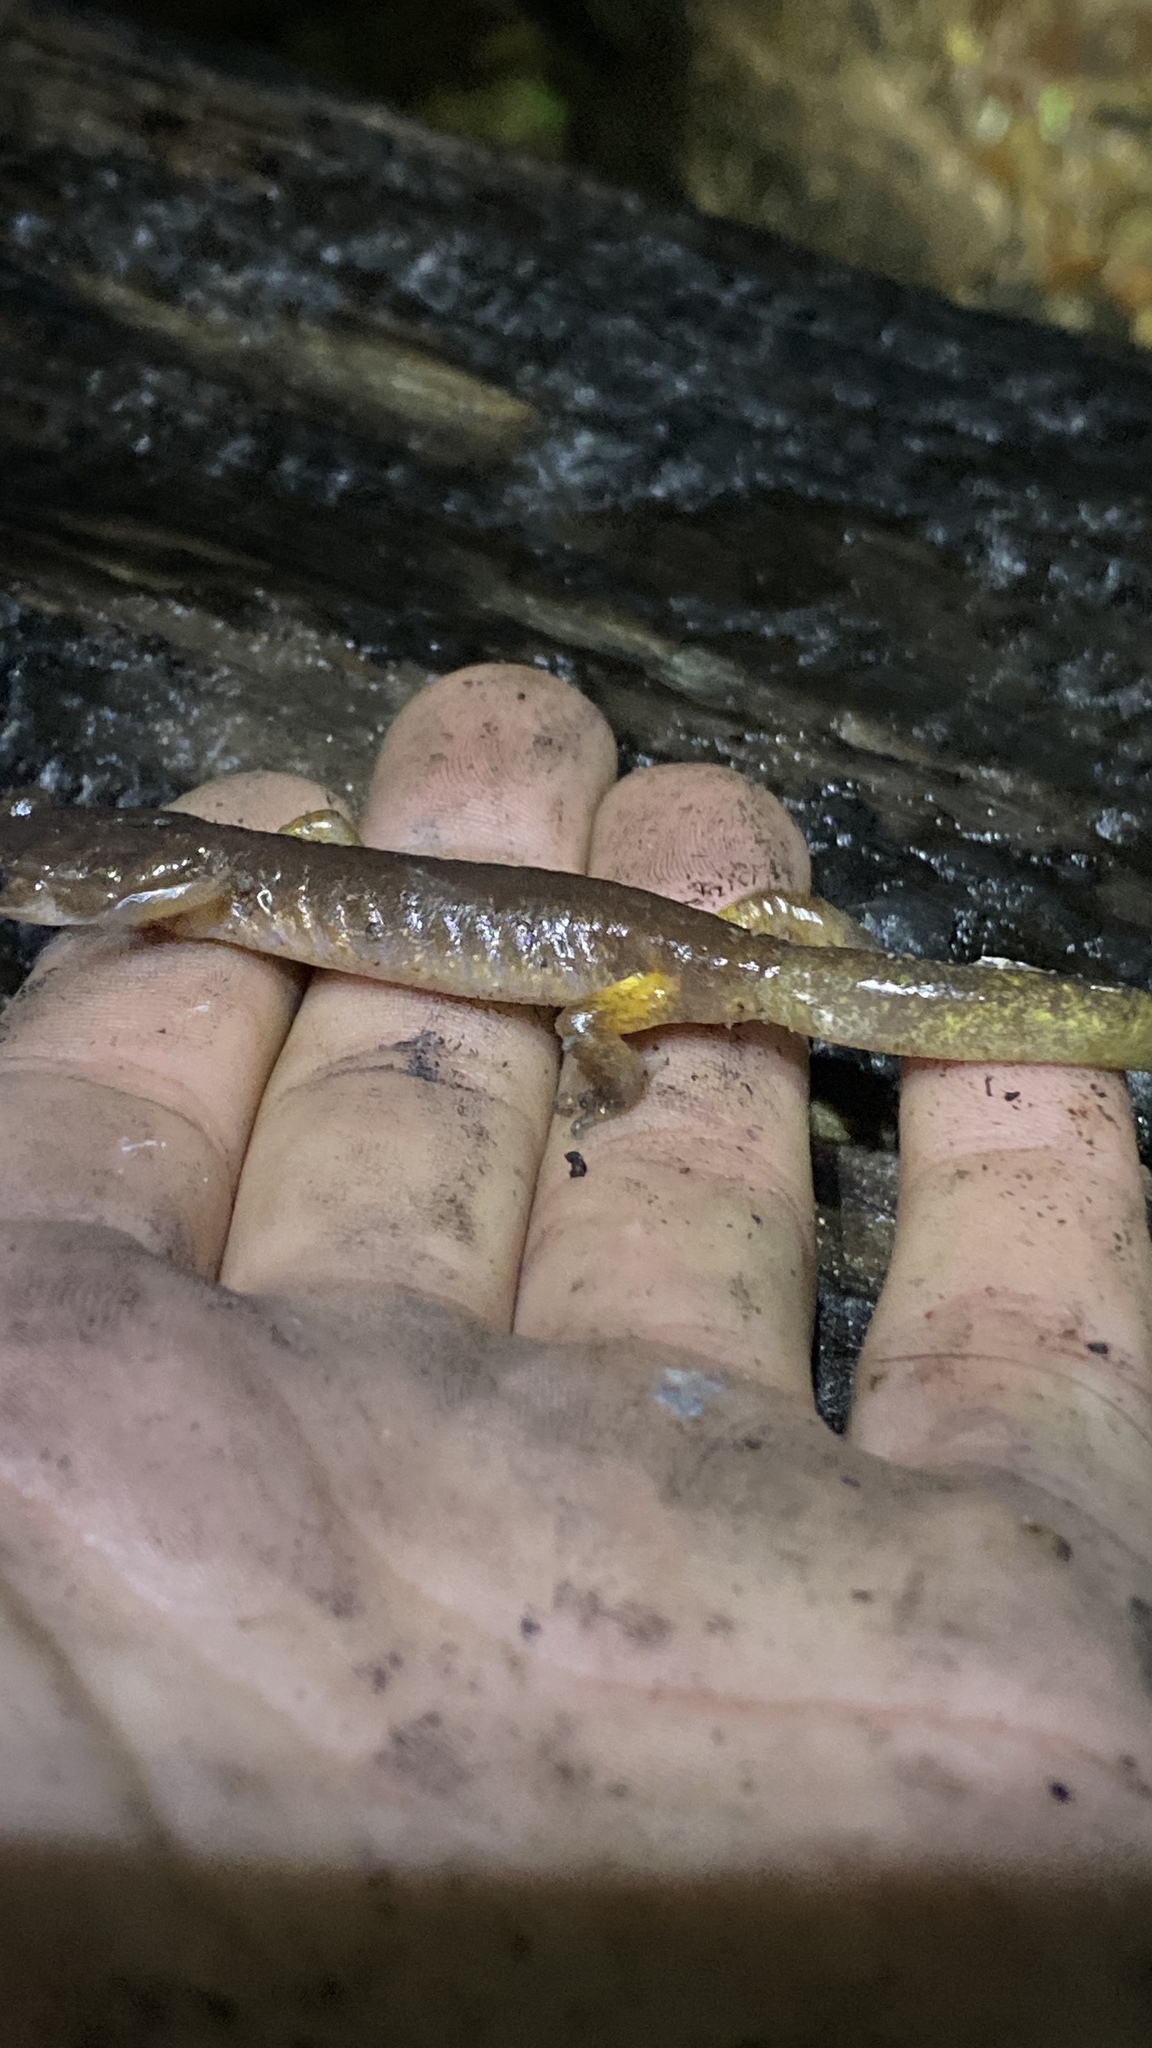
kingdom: Animalia
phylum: Chordata
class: Amphibia
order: Caudata
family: Plethodontidae
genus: Ensatina
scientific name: Ensatina eschscholtzii
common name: Ensatina
